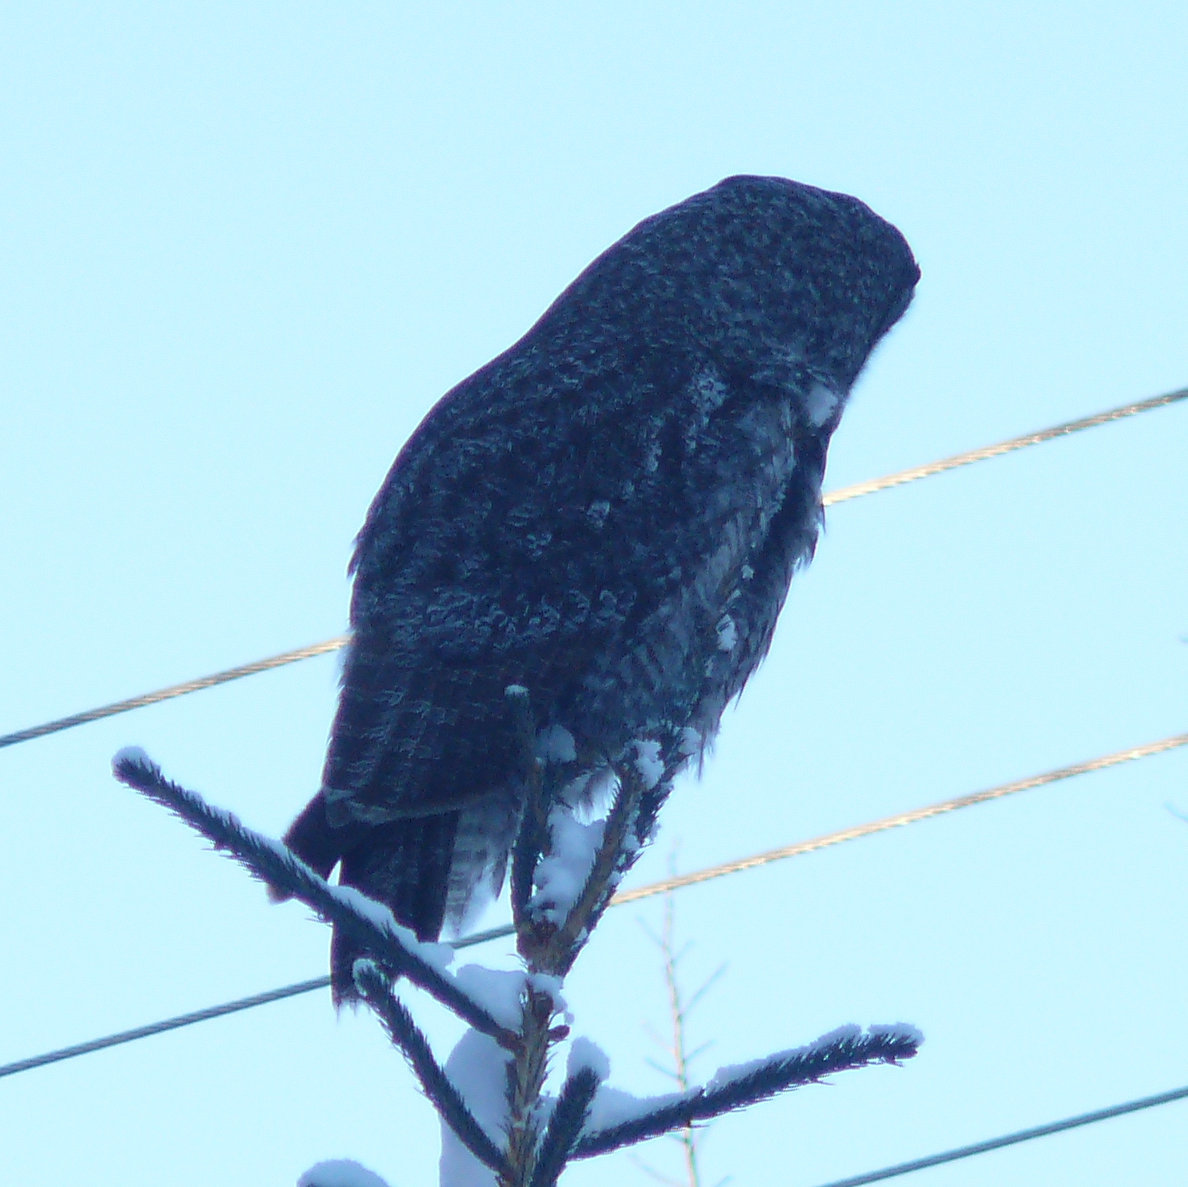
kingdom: Animalia
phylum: Chordata
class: Aves
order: Strigiformes
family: Strigidae
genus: Strix
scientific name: Strix nebulosa
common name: Great grey owl
